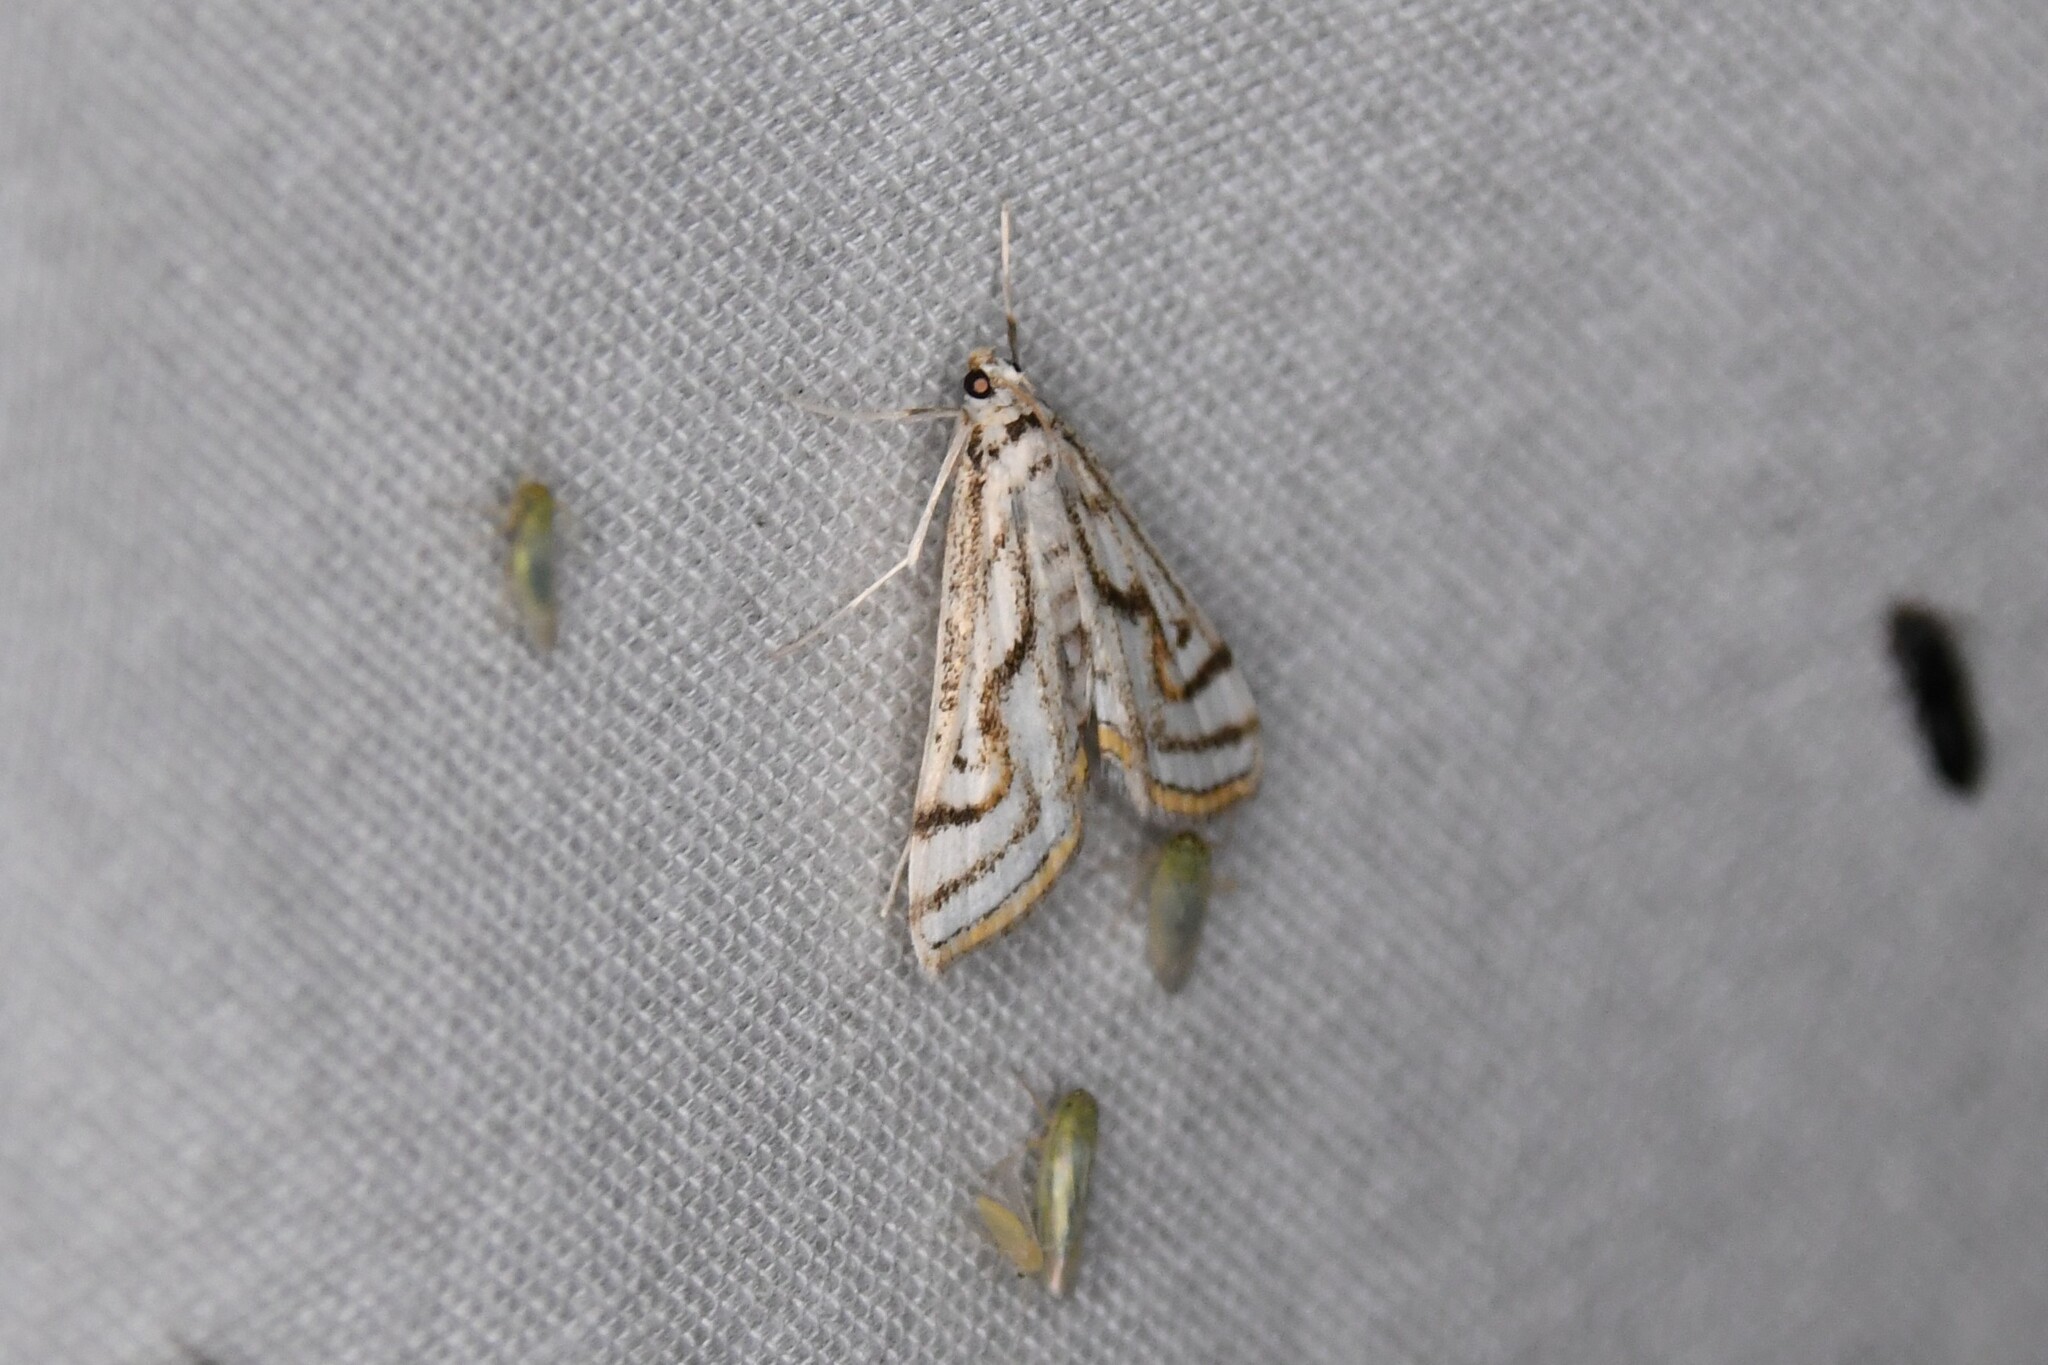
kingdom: Animalia
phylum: Arthropoda
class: Insecta
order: Lepidoptera
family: Crambidae
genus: Parapoynx
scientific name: Parapoynx badiusalis
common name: Chestnut-marked pondweed moth
